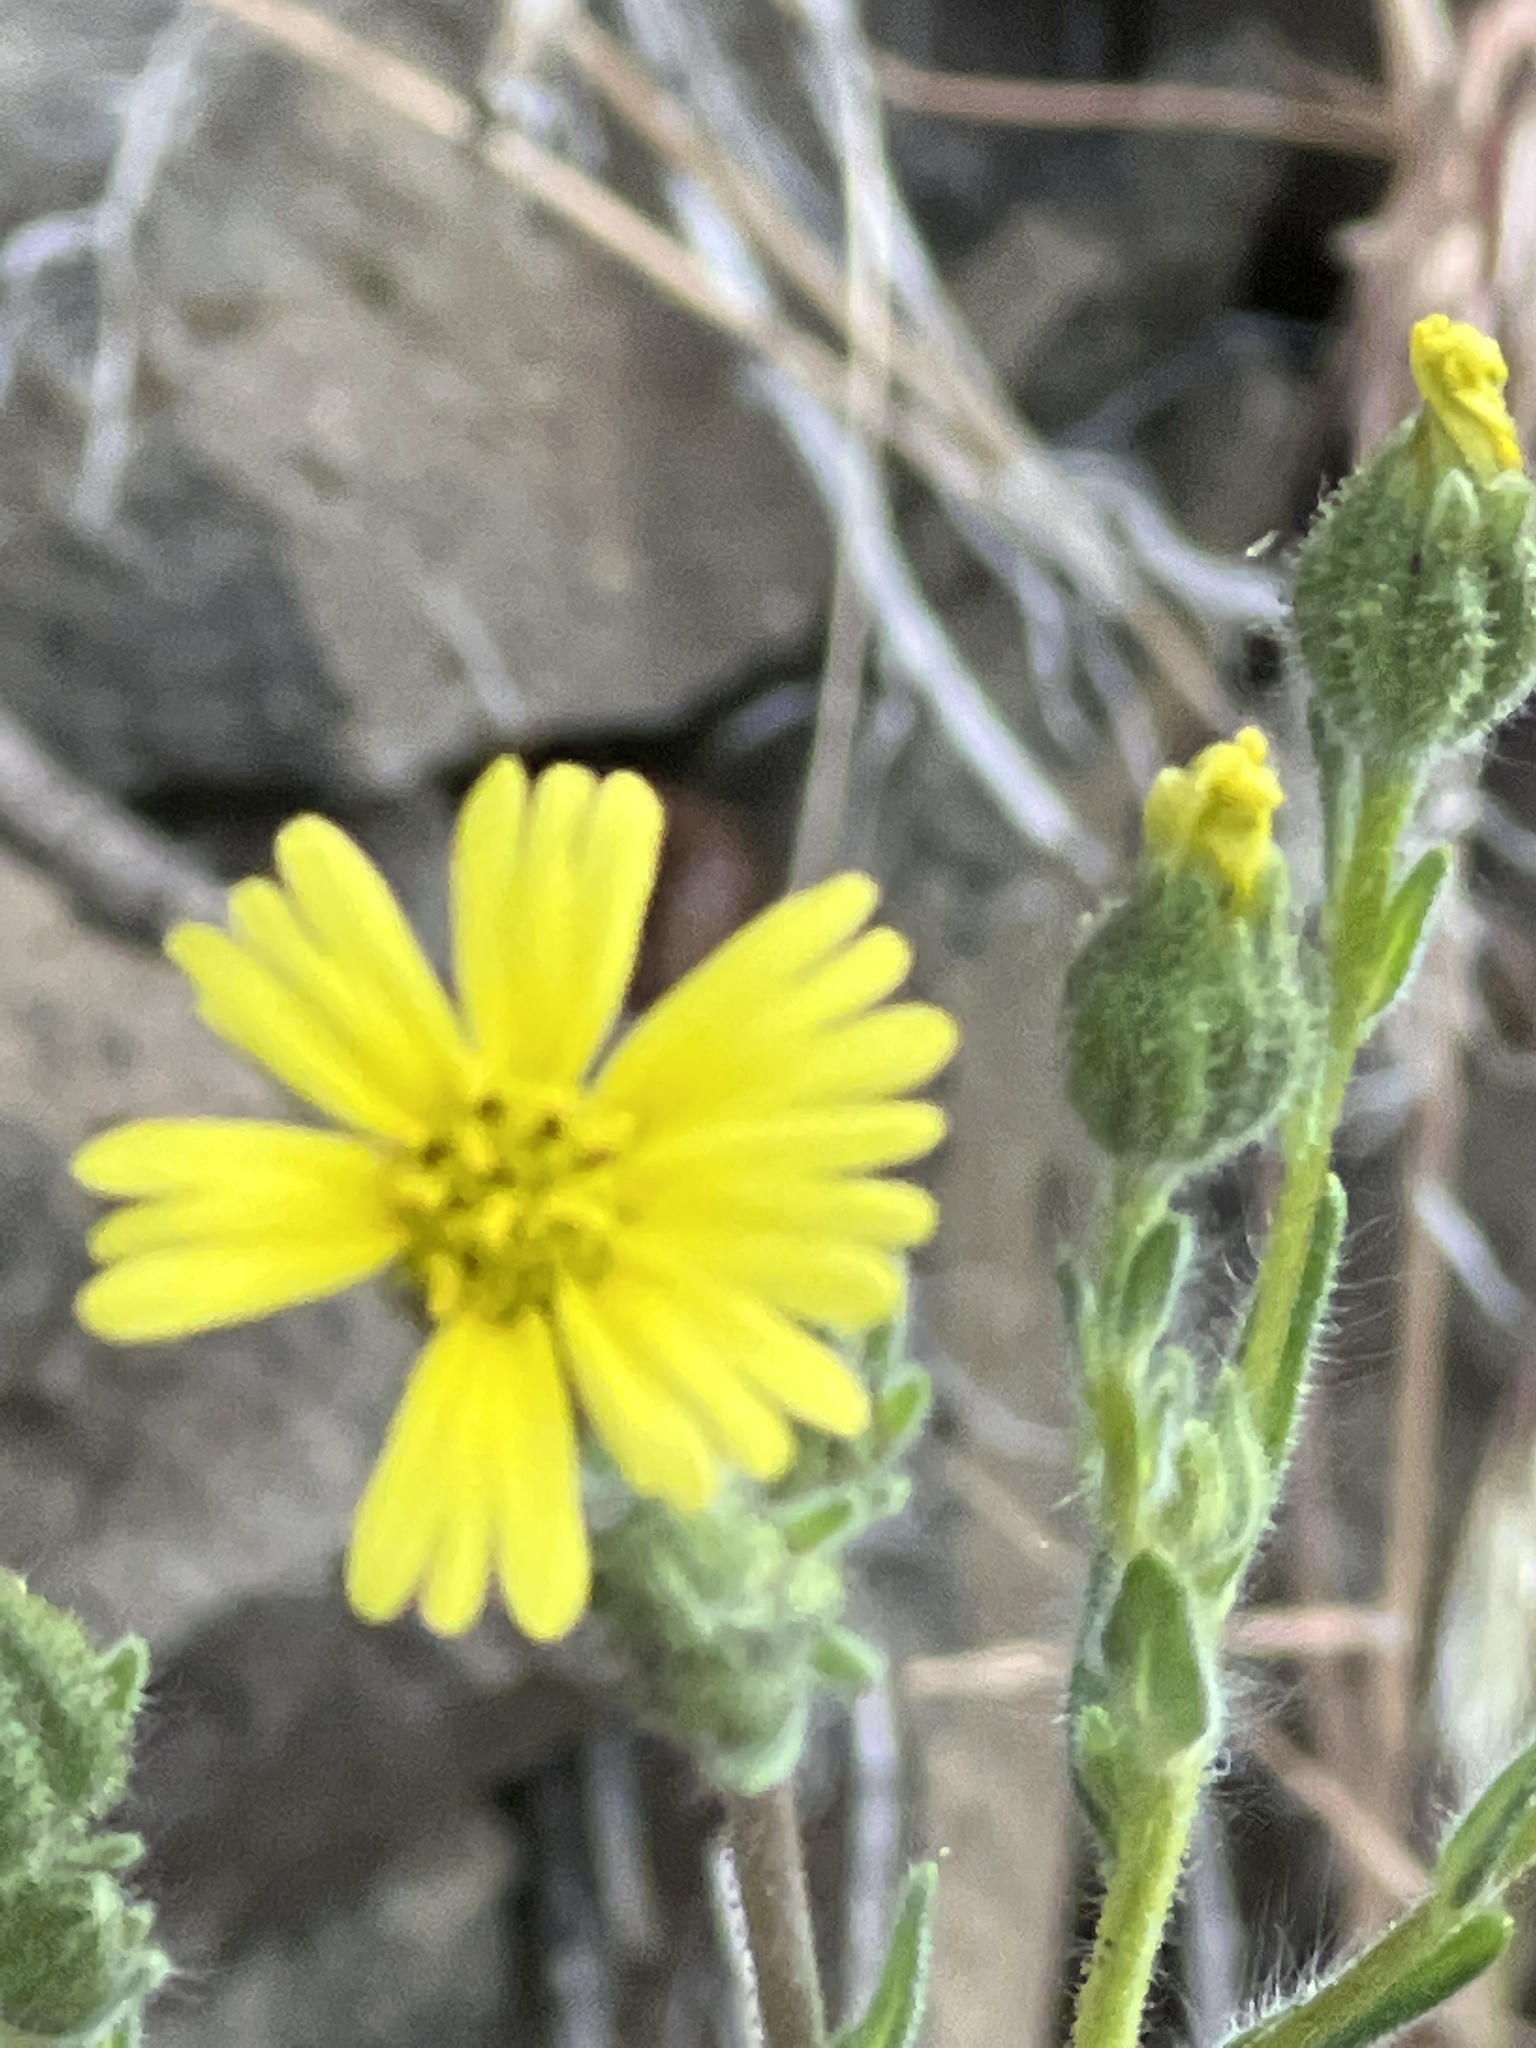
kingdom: Plantae
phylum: Tracheophyta
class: Magnoliopsida
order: Asterales
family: Asteraceae
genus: Madia
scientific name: Madia gracilis
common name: Grassy tarweed
